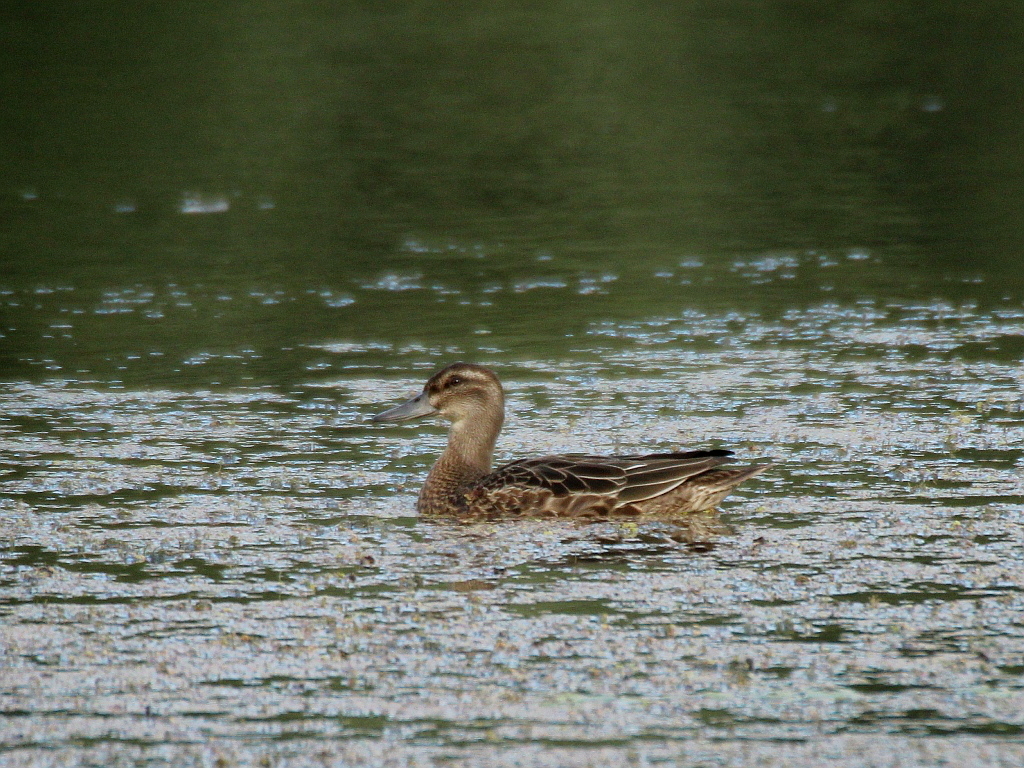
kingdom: Animalia
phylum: Chordata
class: Aves
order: Anseriformes
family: Anatidae
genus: Spatula
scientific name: Spatula querquedula
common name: Garganey
